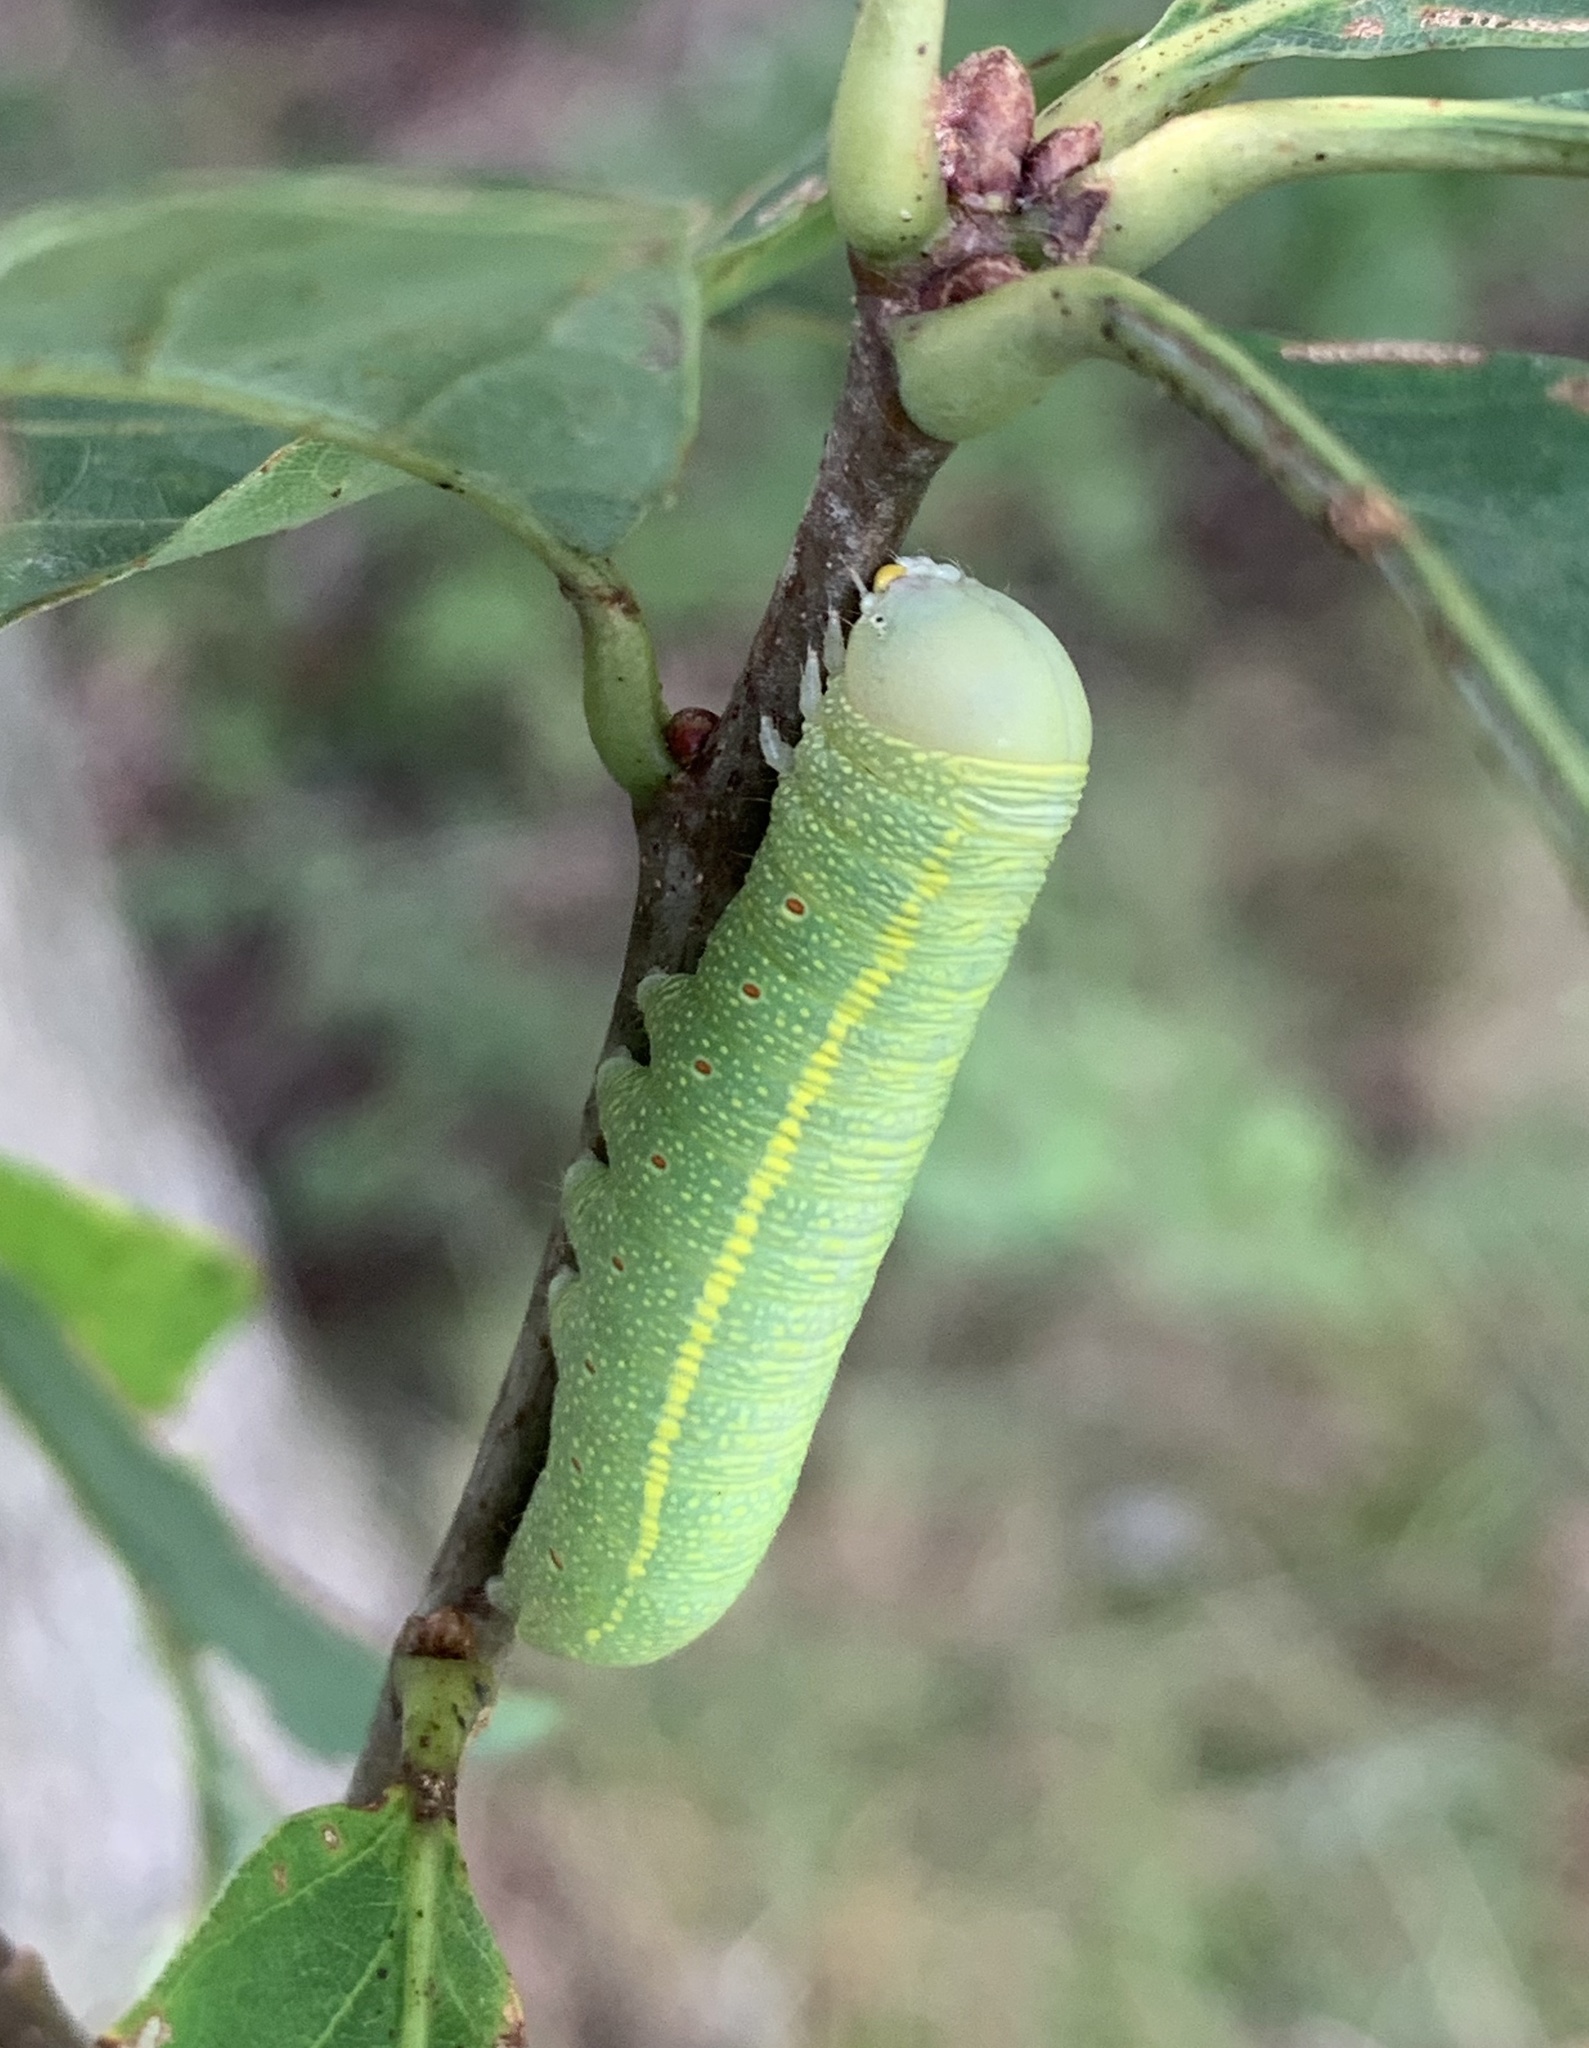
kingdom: Animalia
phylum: Arthropoda
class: Insecta
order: Lepidoptera
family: Notodontidae
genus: Nadata
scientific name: Nadata gibbosa
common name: White-dotted prominent
